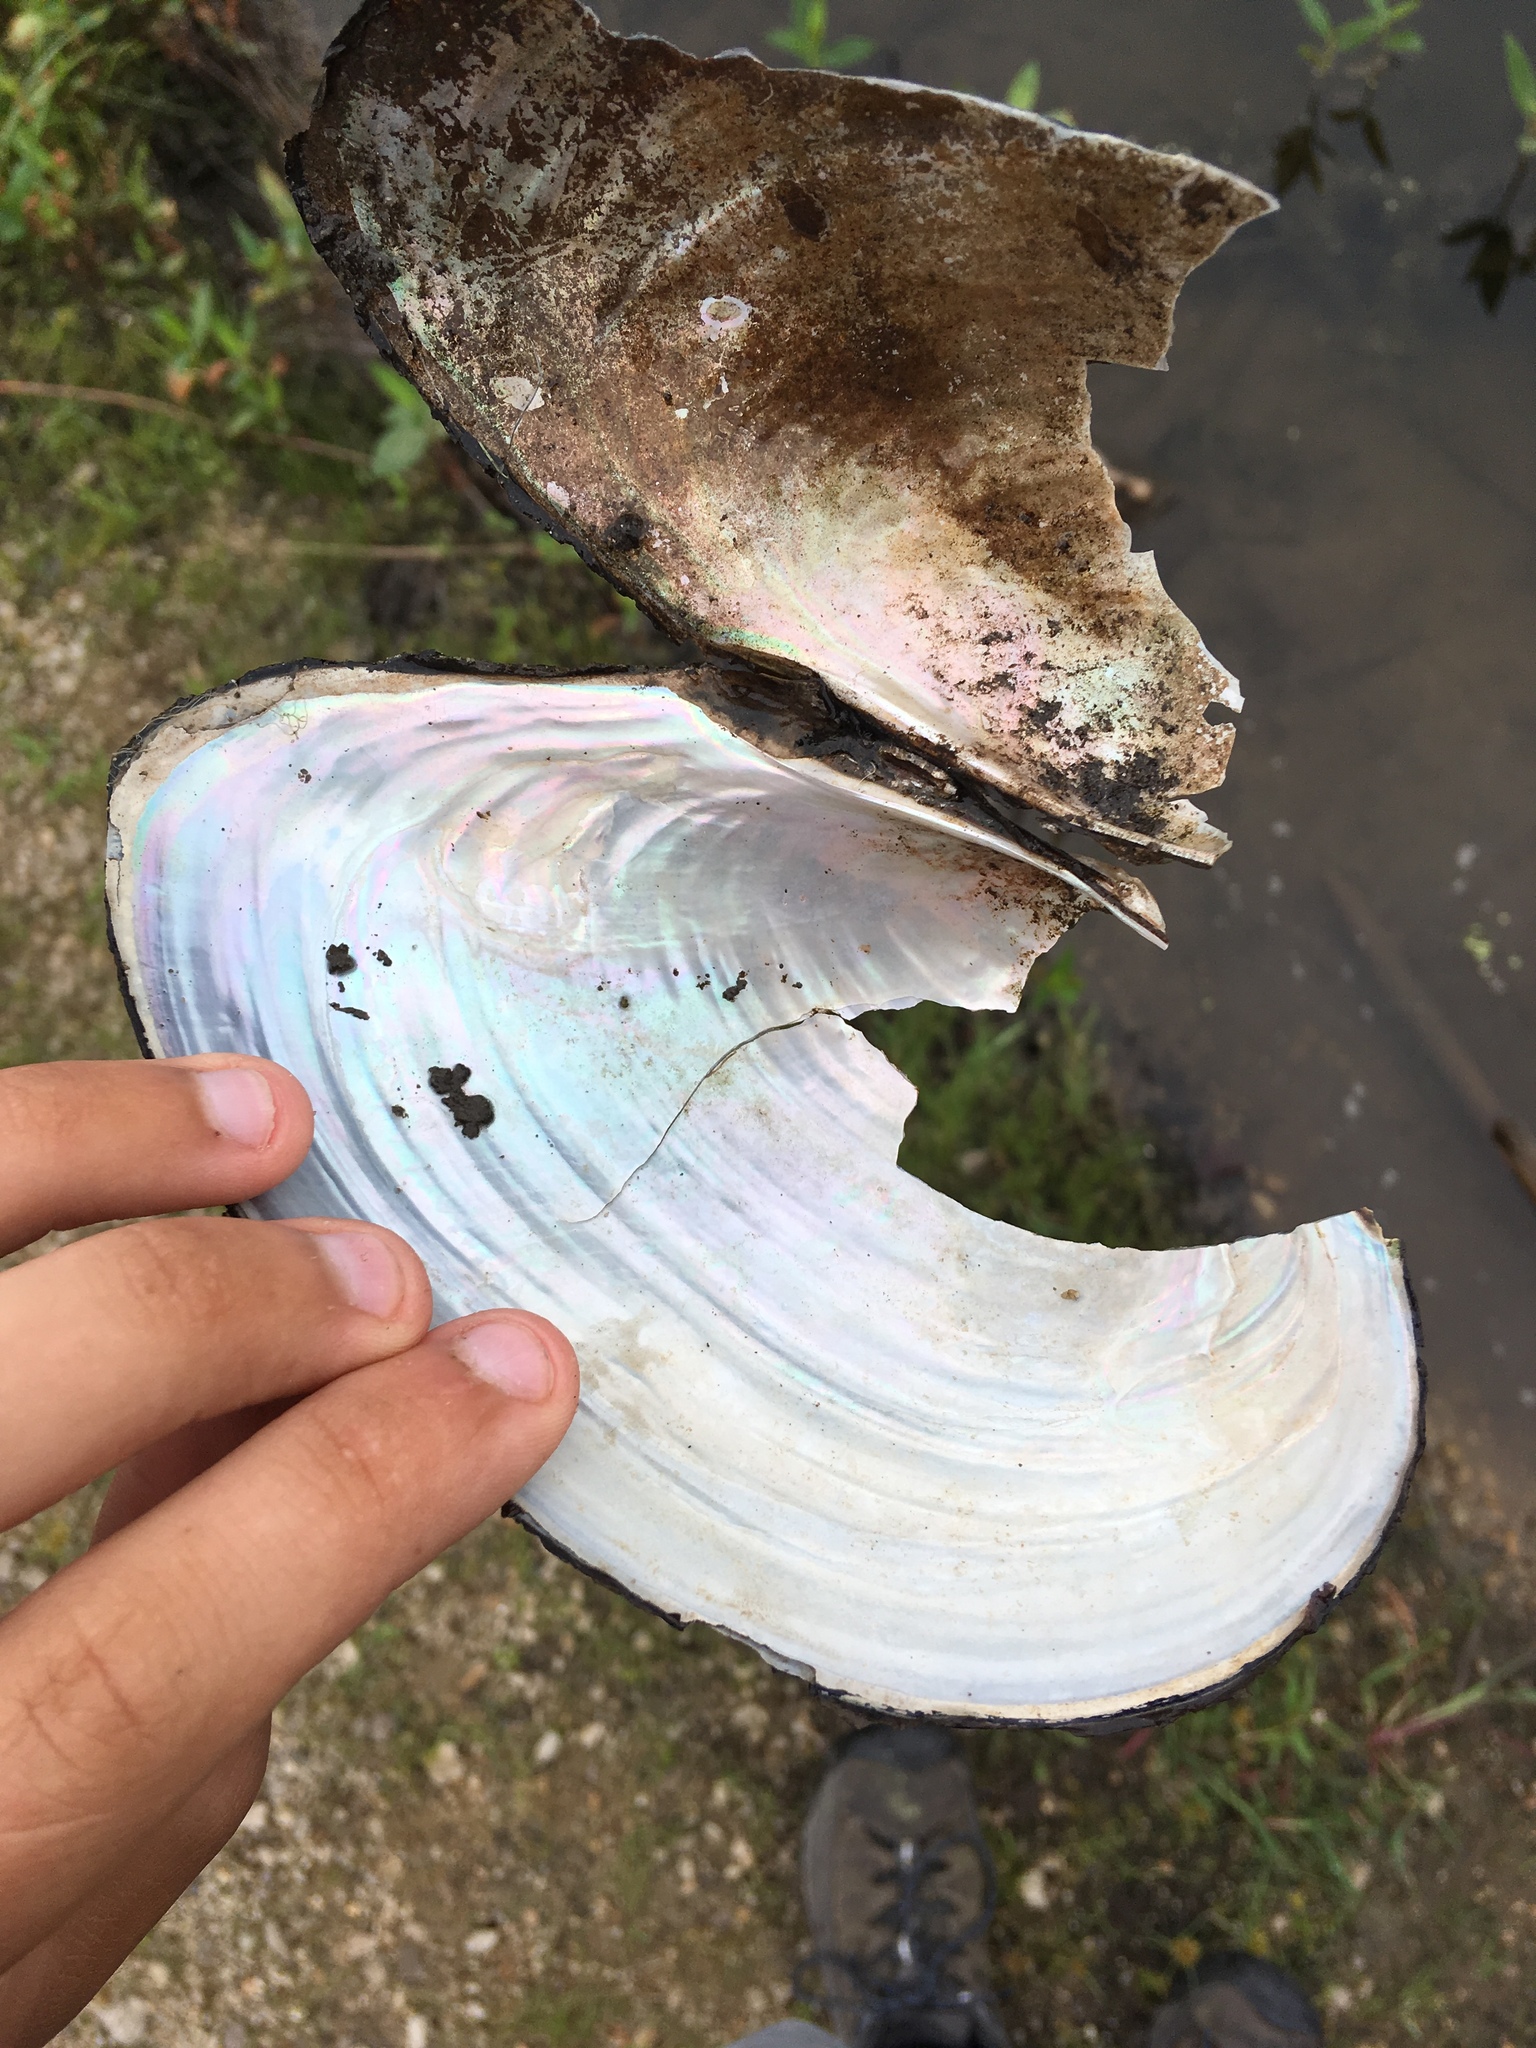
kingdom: Animalia
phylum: Mollusca
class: Bivalvia
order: Unionida
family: Unionidae
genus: Pyganodon
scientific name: Pyganodon grandis
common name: Giant floater
